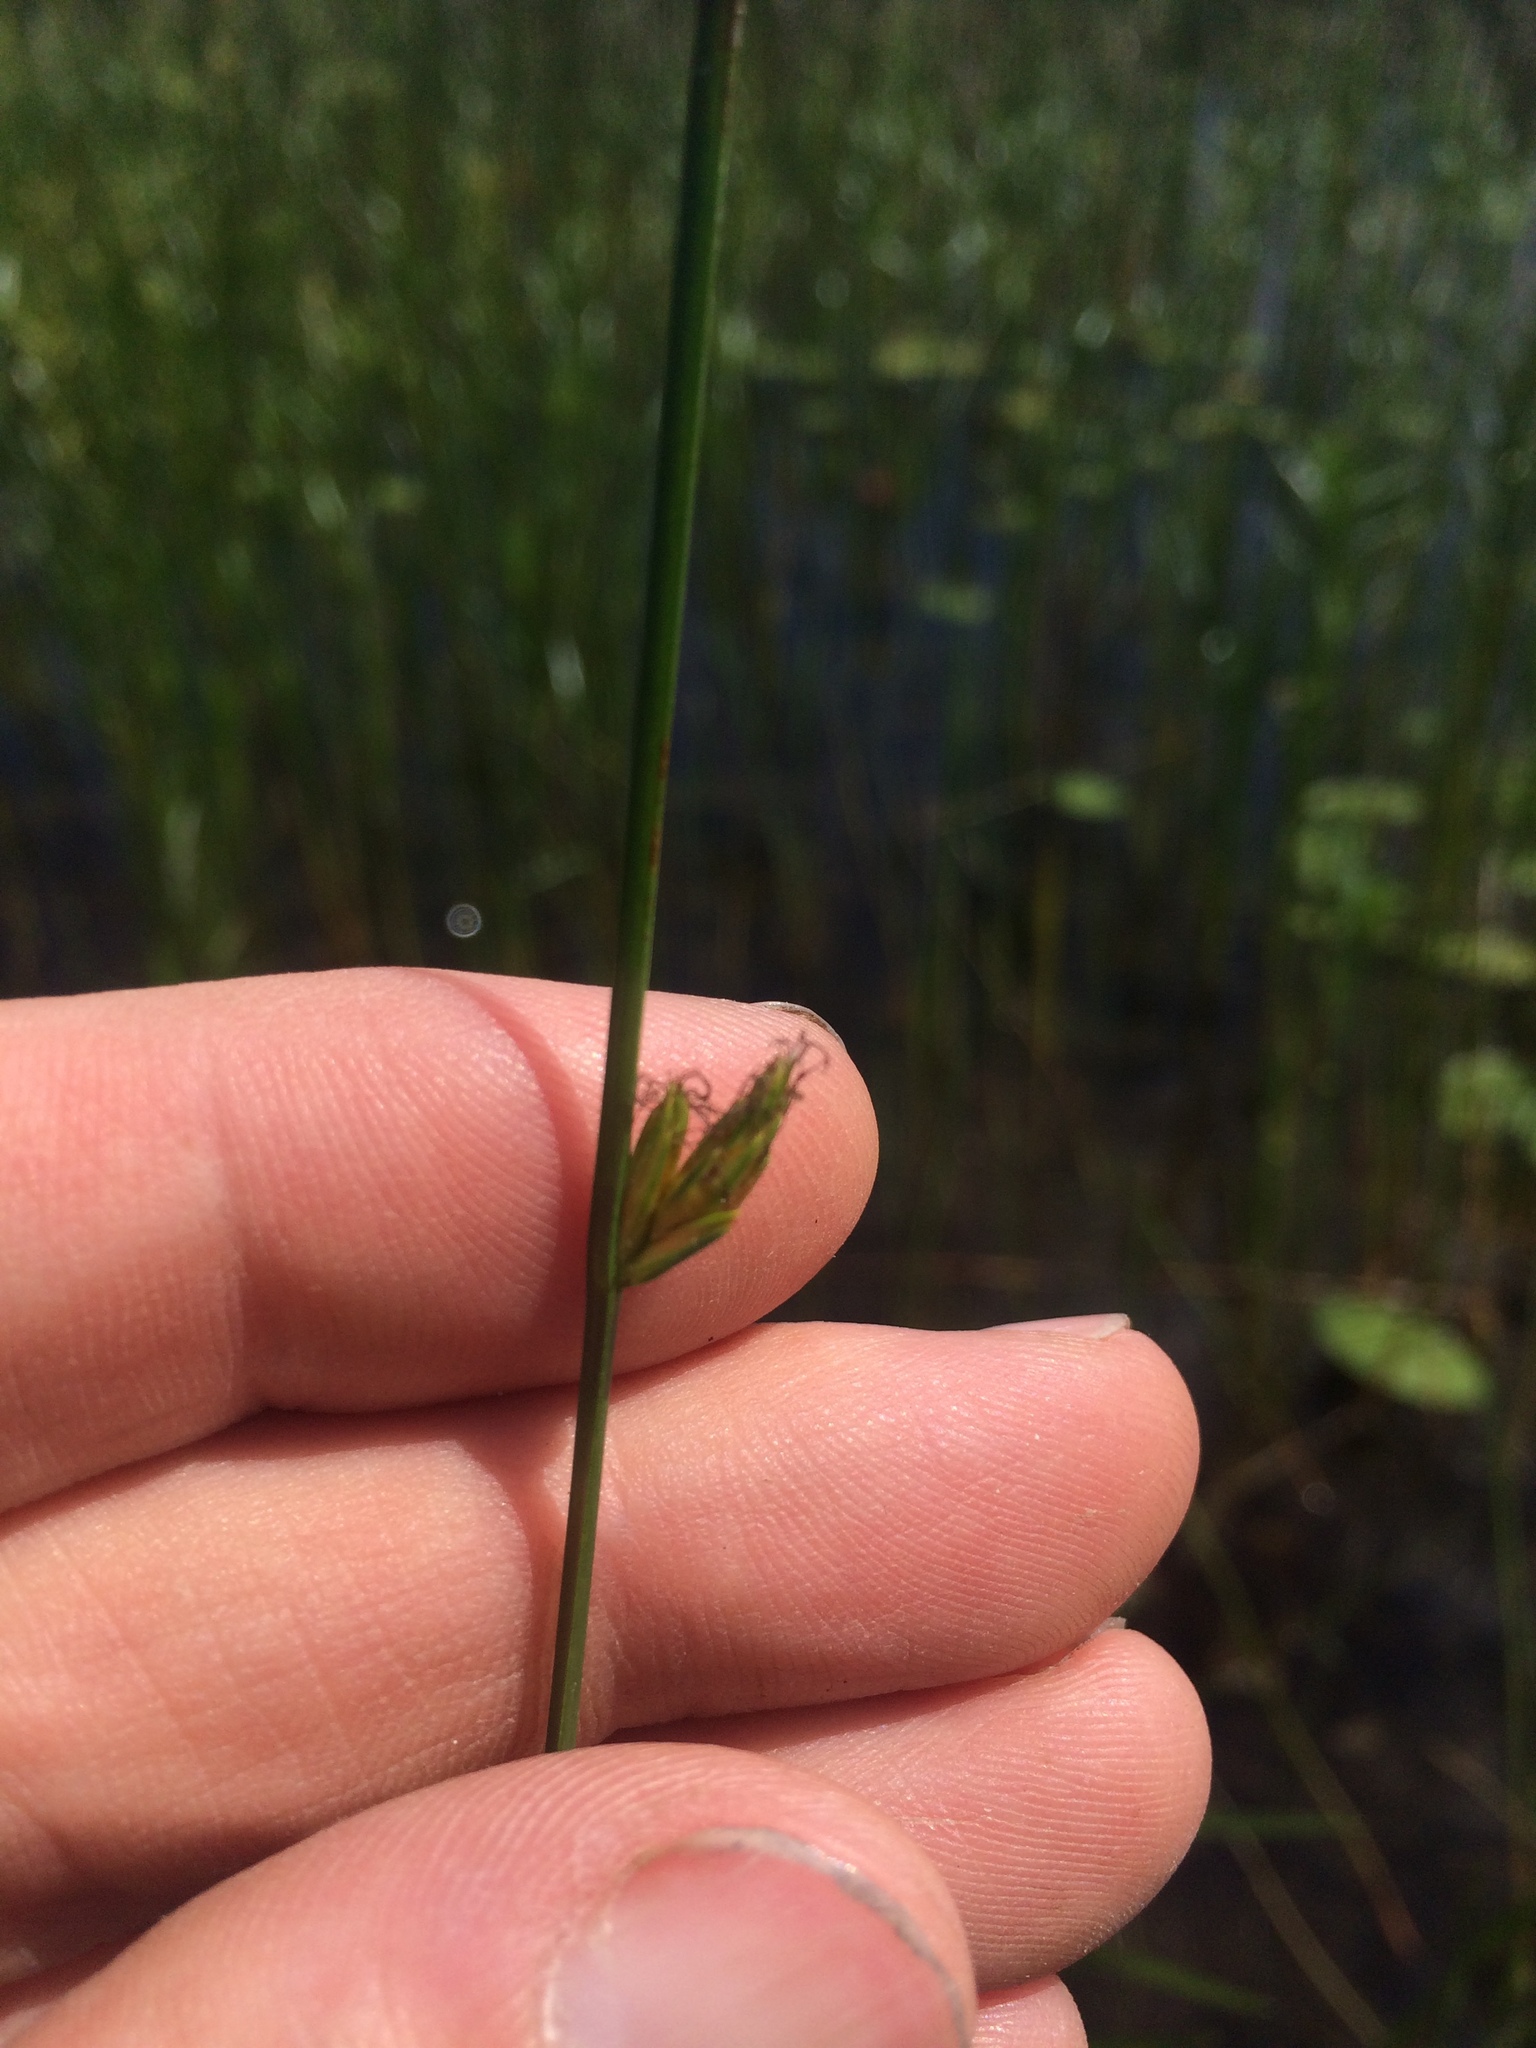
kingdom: Plantae
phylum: Tracheophyta
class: Liliopsida
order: Poales
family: Cyperaceae
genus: Schoenoplectus
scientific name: Schoenoplectus torreyi
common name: Torrey's bulrush
